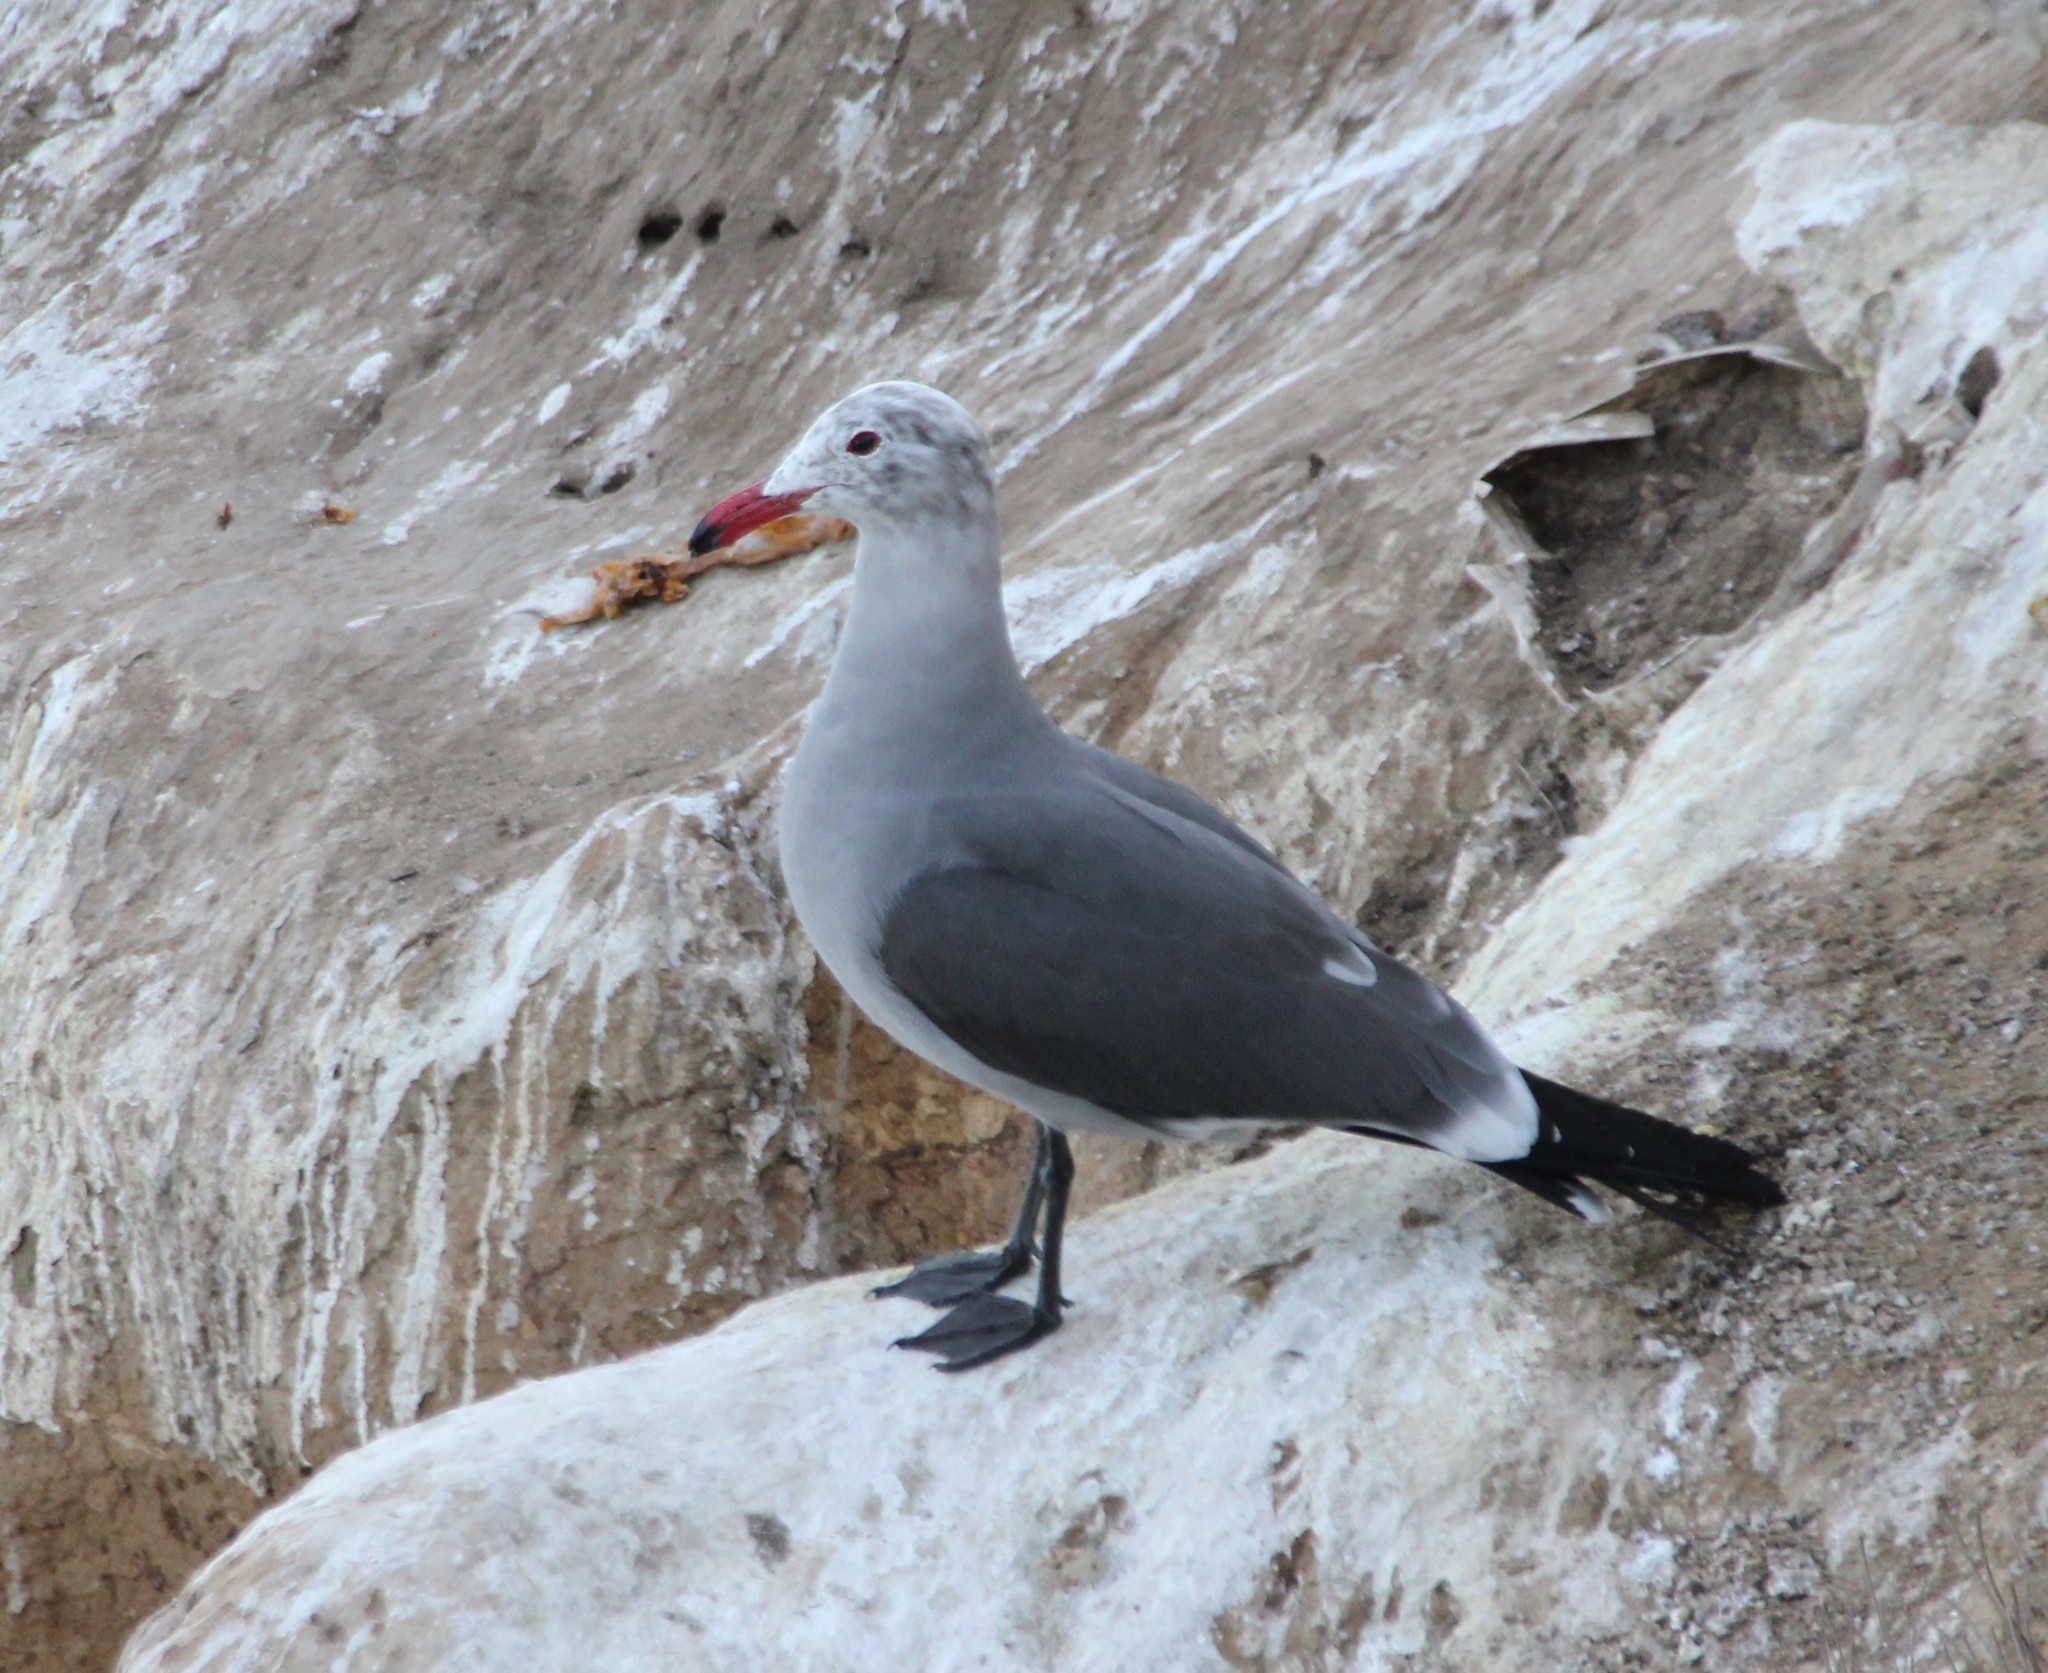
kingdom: Animalia
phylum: Chordata
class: Aves
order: Charadriiformes
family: Laridae
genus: Larus
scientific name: Larus heermanni
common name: Heermann's gull
